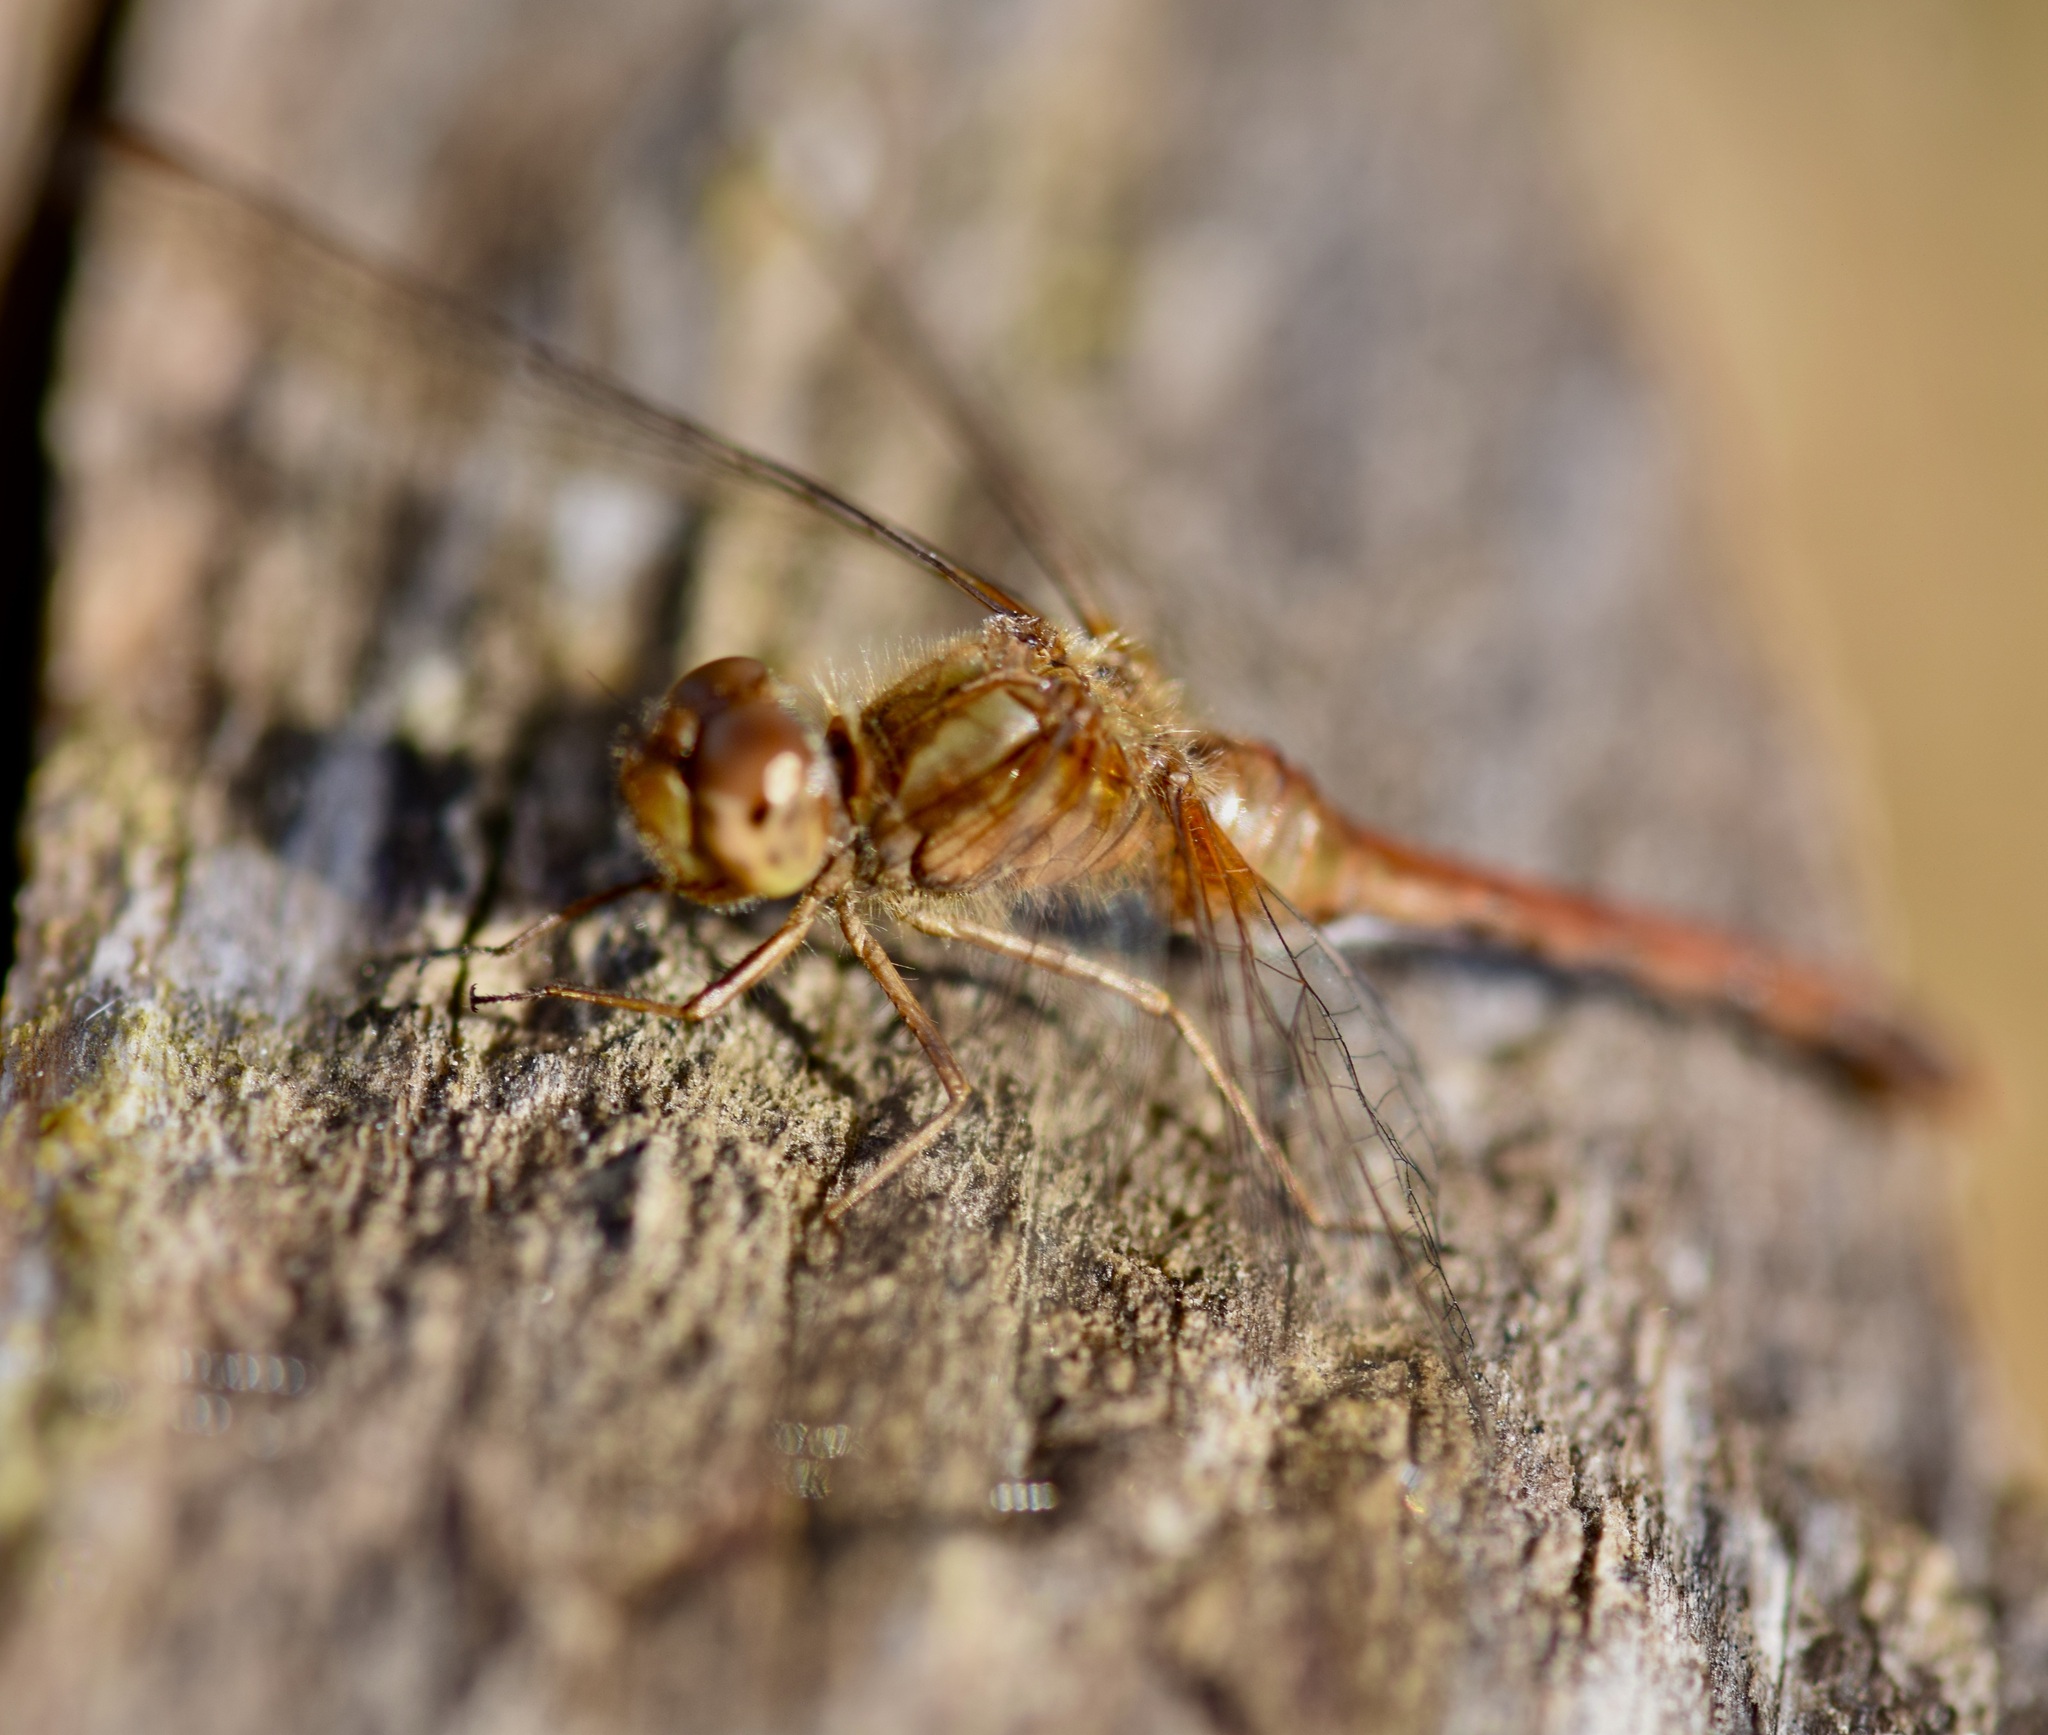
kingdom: Animalia
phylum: Arthropoda
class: Insecta
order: Odonata
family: Libellulidae
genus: Sympetrum
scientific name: Sympetrum vicinum
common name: Autumn meadowhawk
